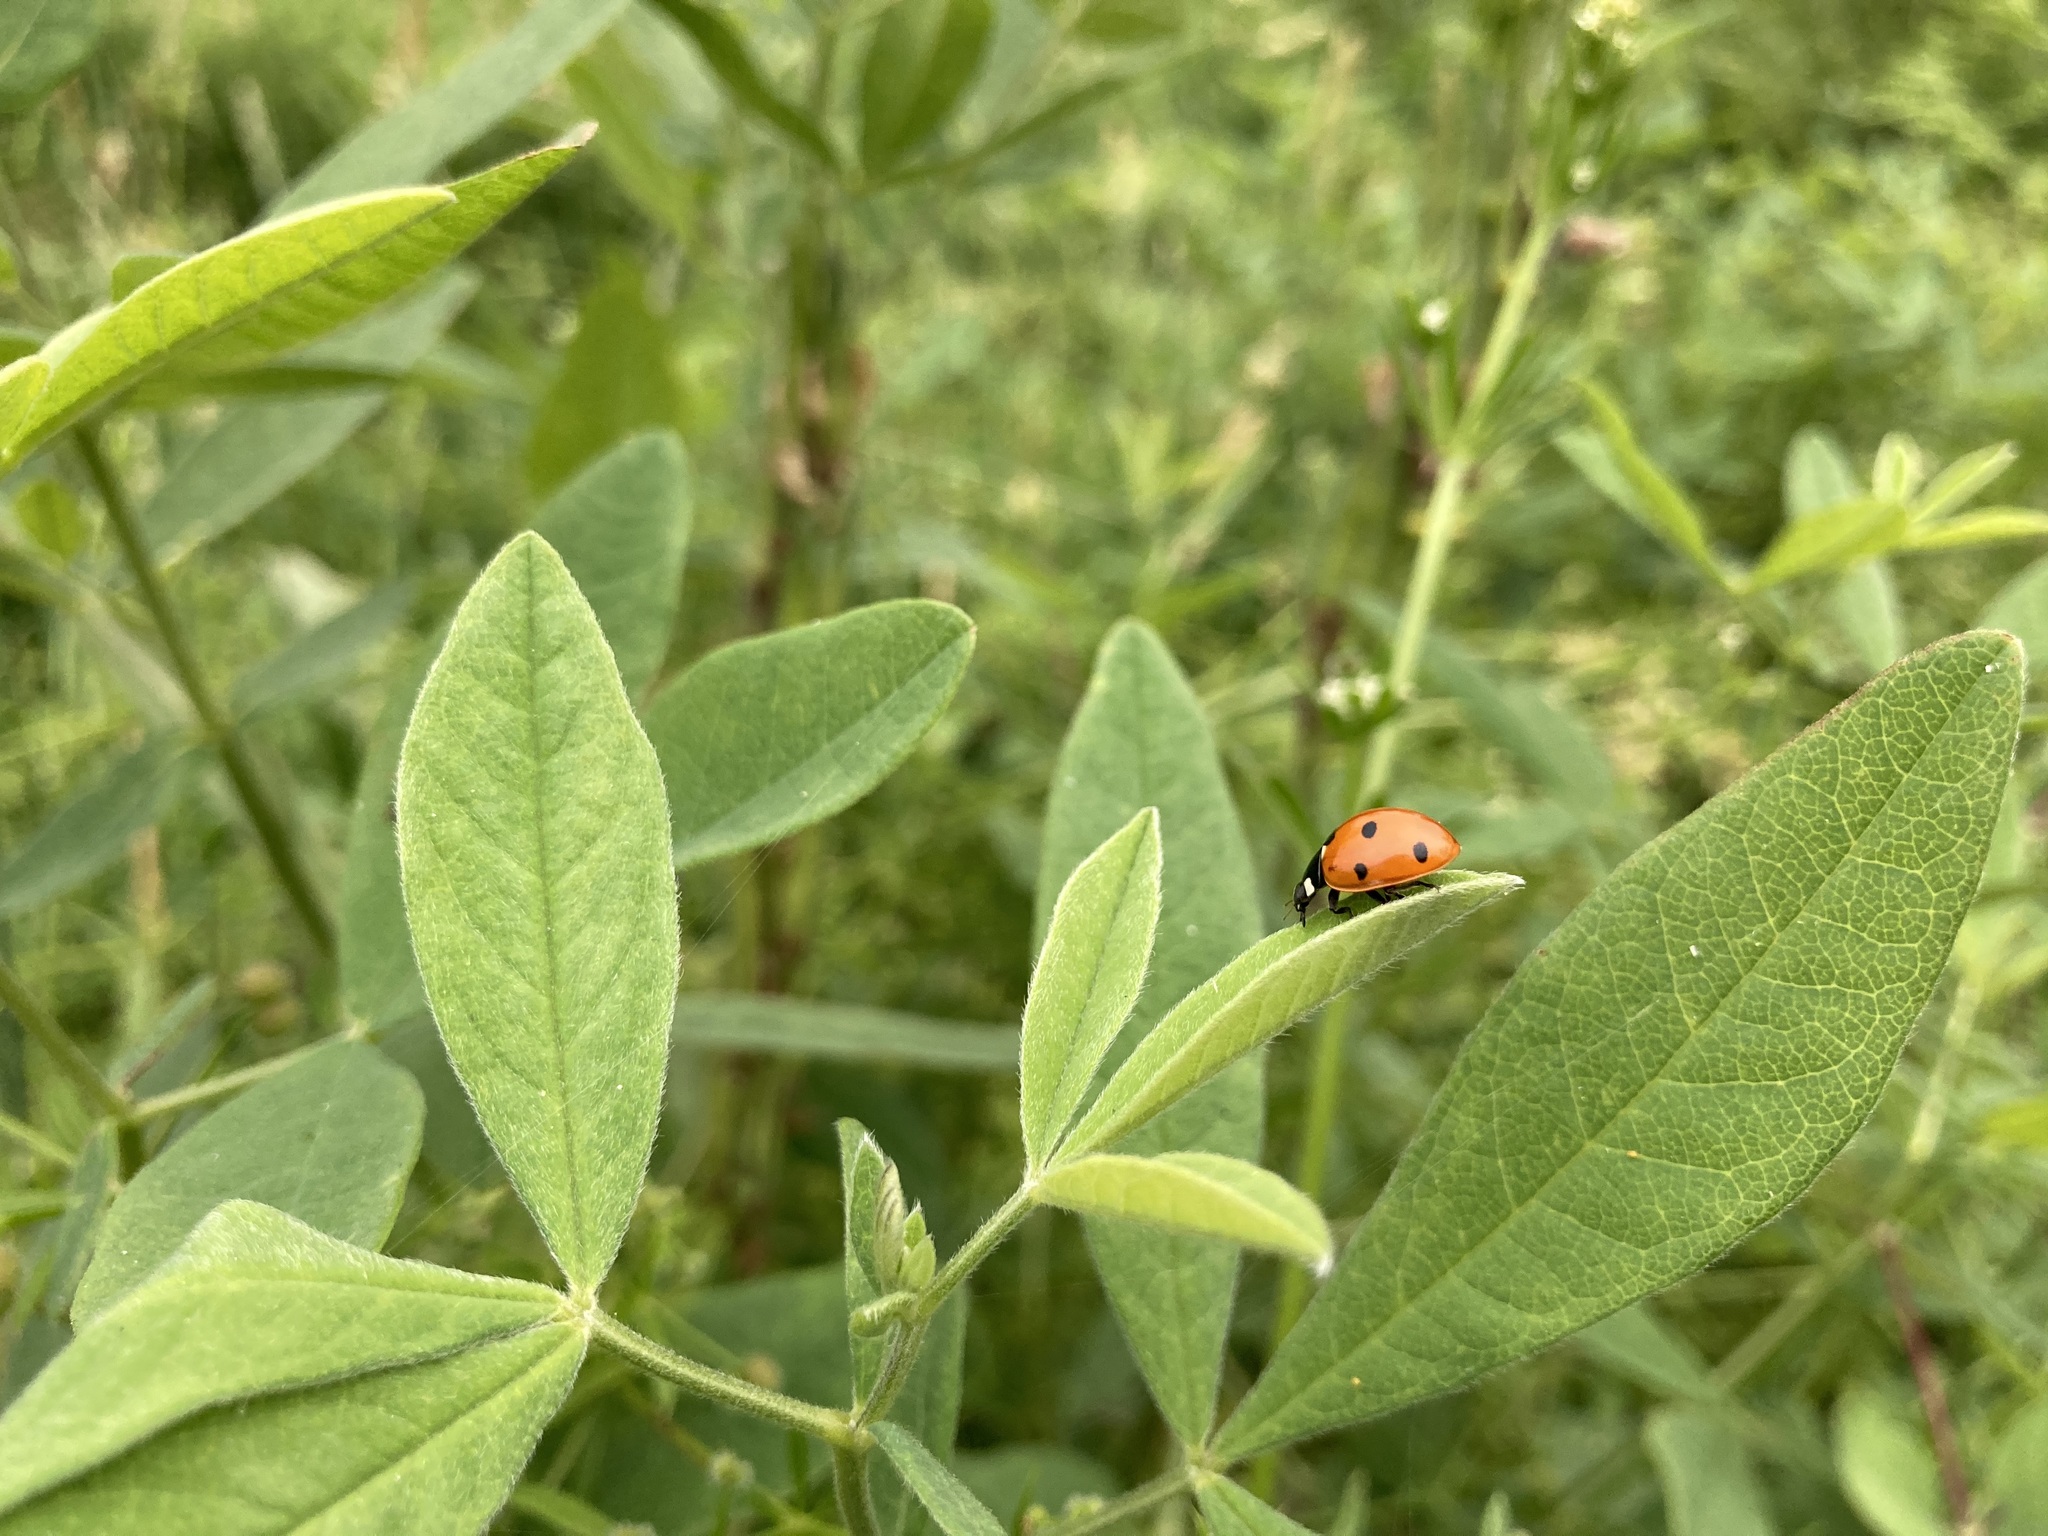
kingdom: Animalia
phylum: Arthropoda
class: Insecta
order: Coleoptera
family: Coccinellidae
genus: Coccinella
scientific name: Coccinella septempunctata
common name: Sevenspotted lady beetle
